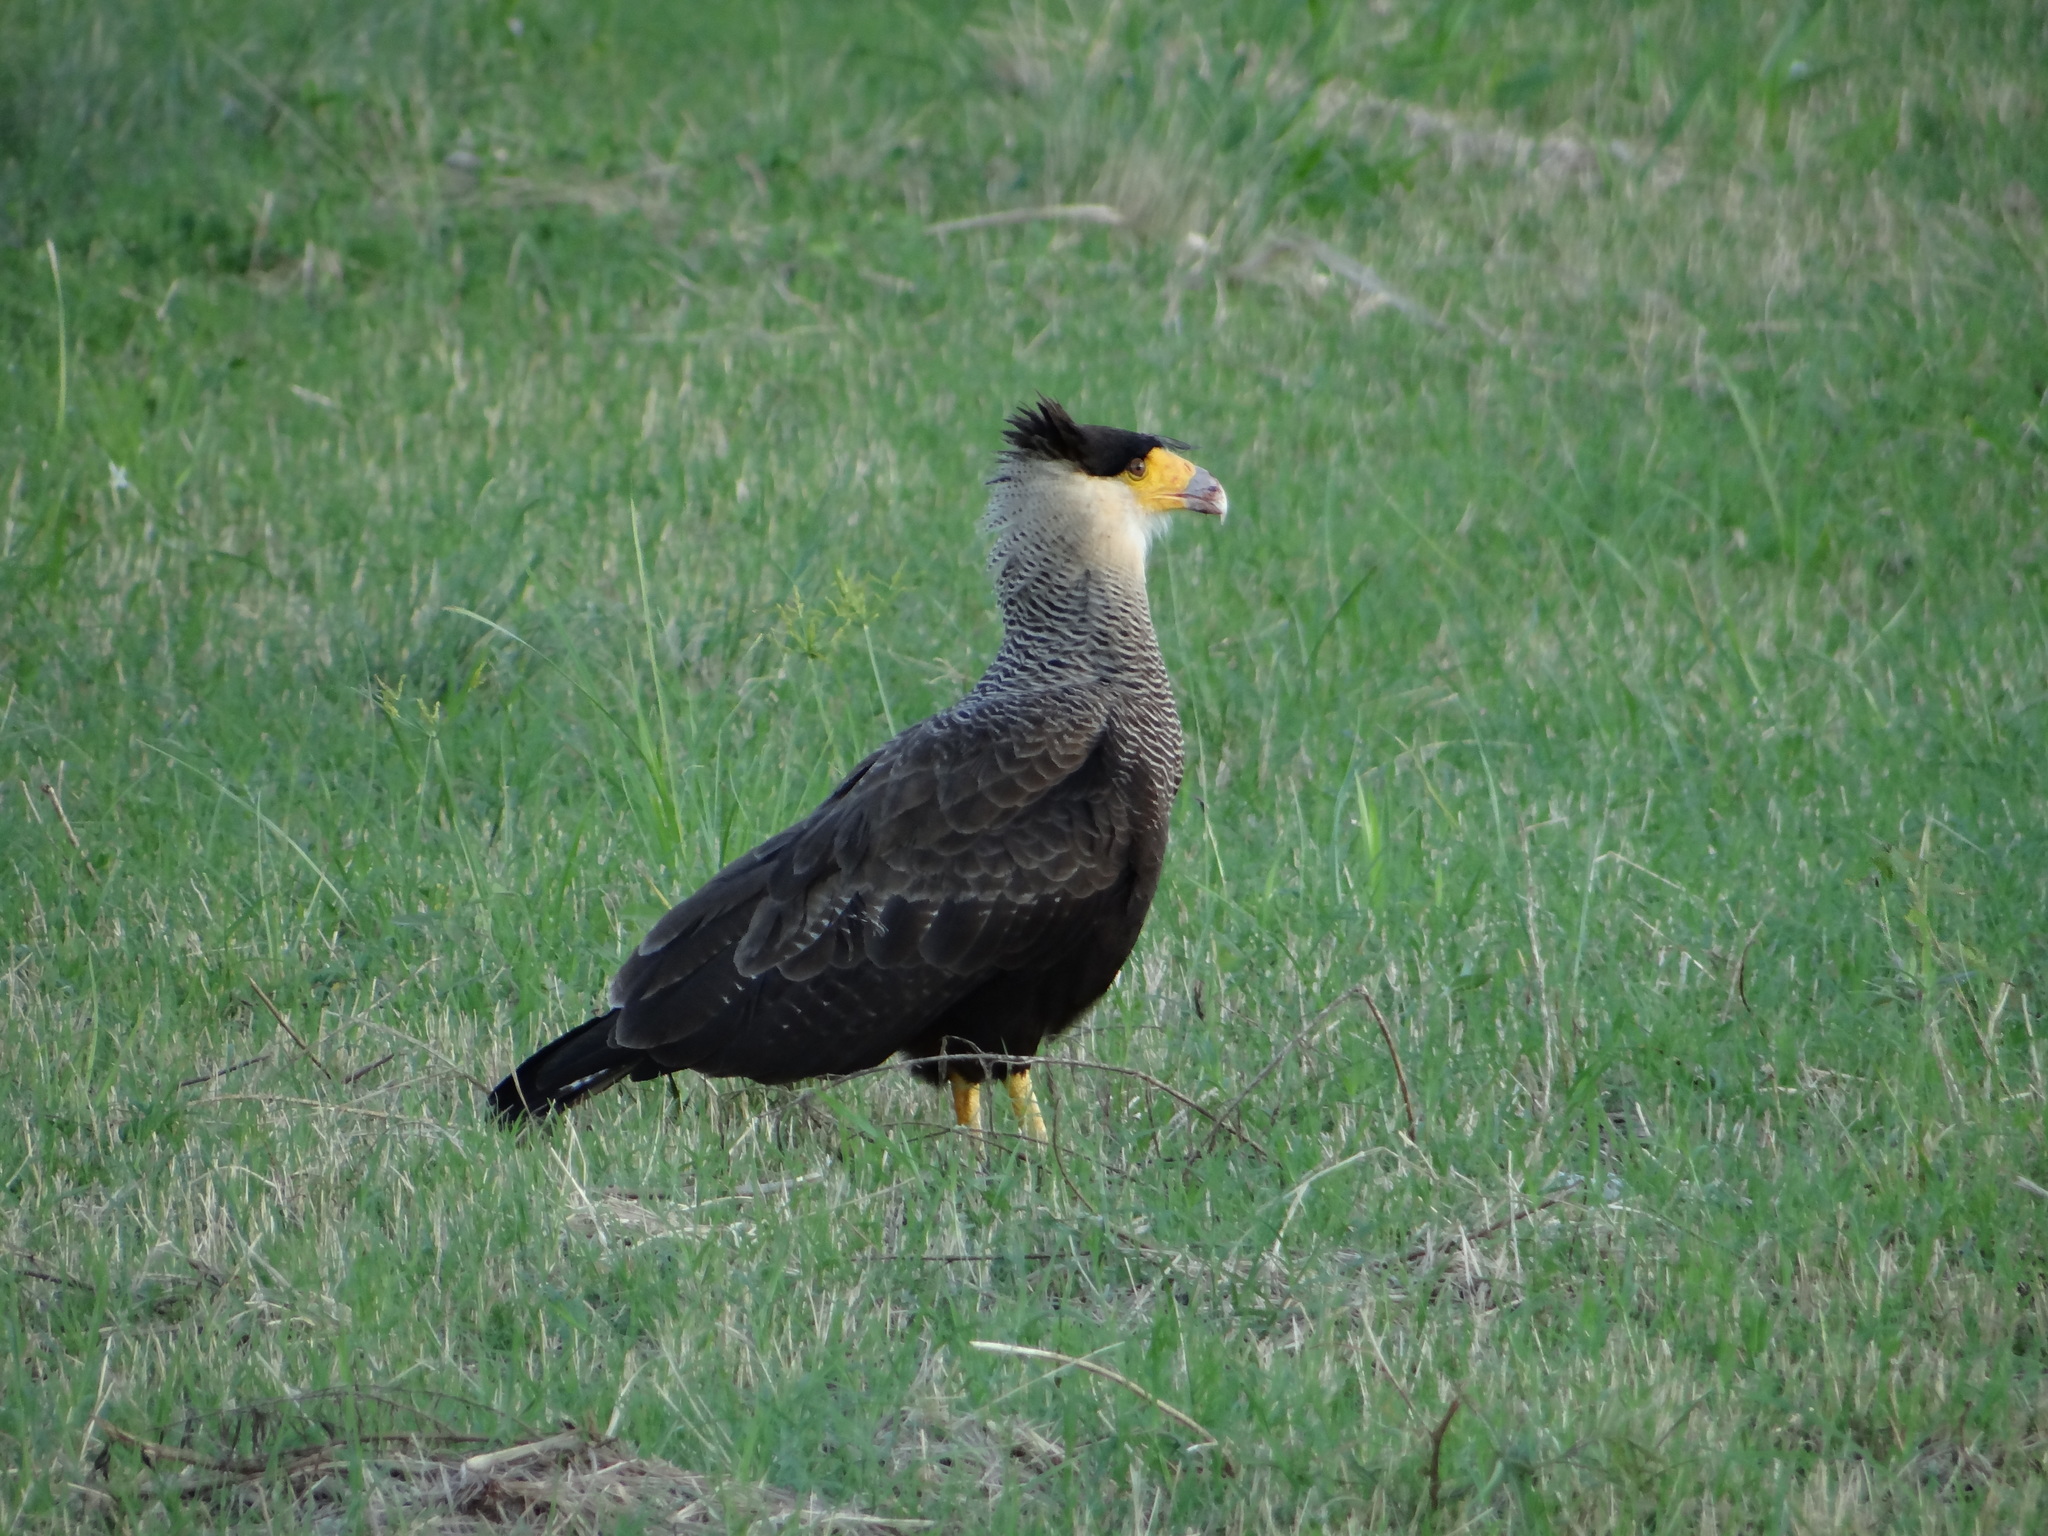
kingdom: Animalia
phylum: Chordata
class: Aves
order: Falconiformes
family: Falconidae
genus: Caracara
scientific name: Caracara plancus
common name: Southern caracara
